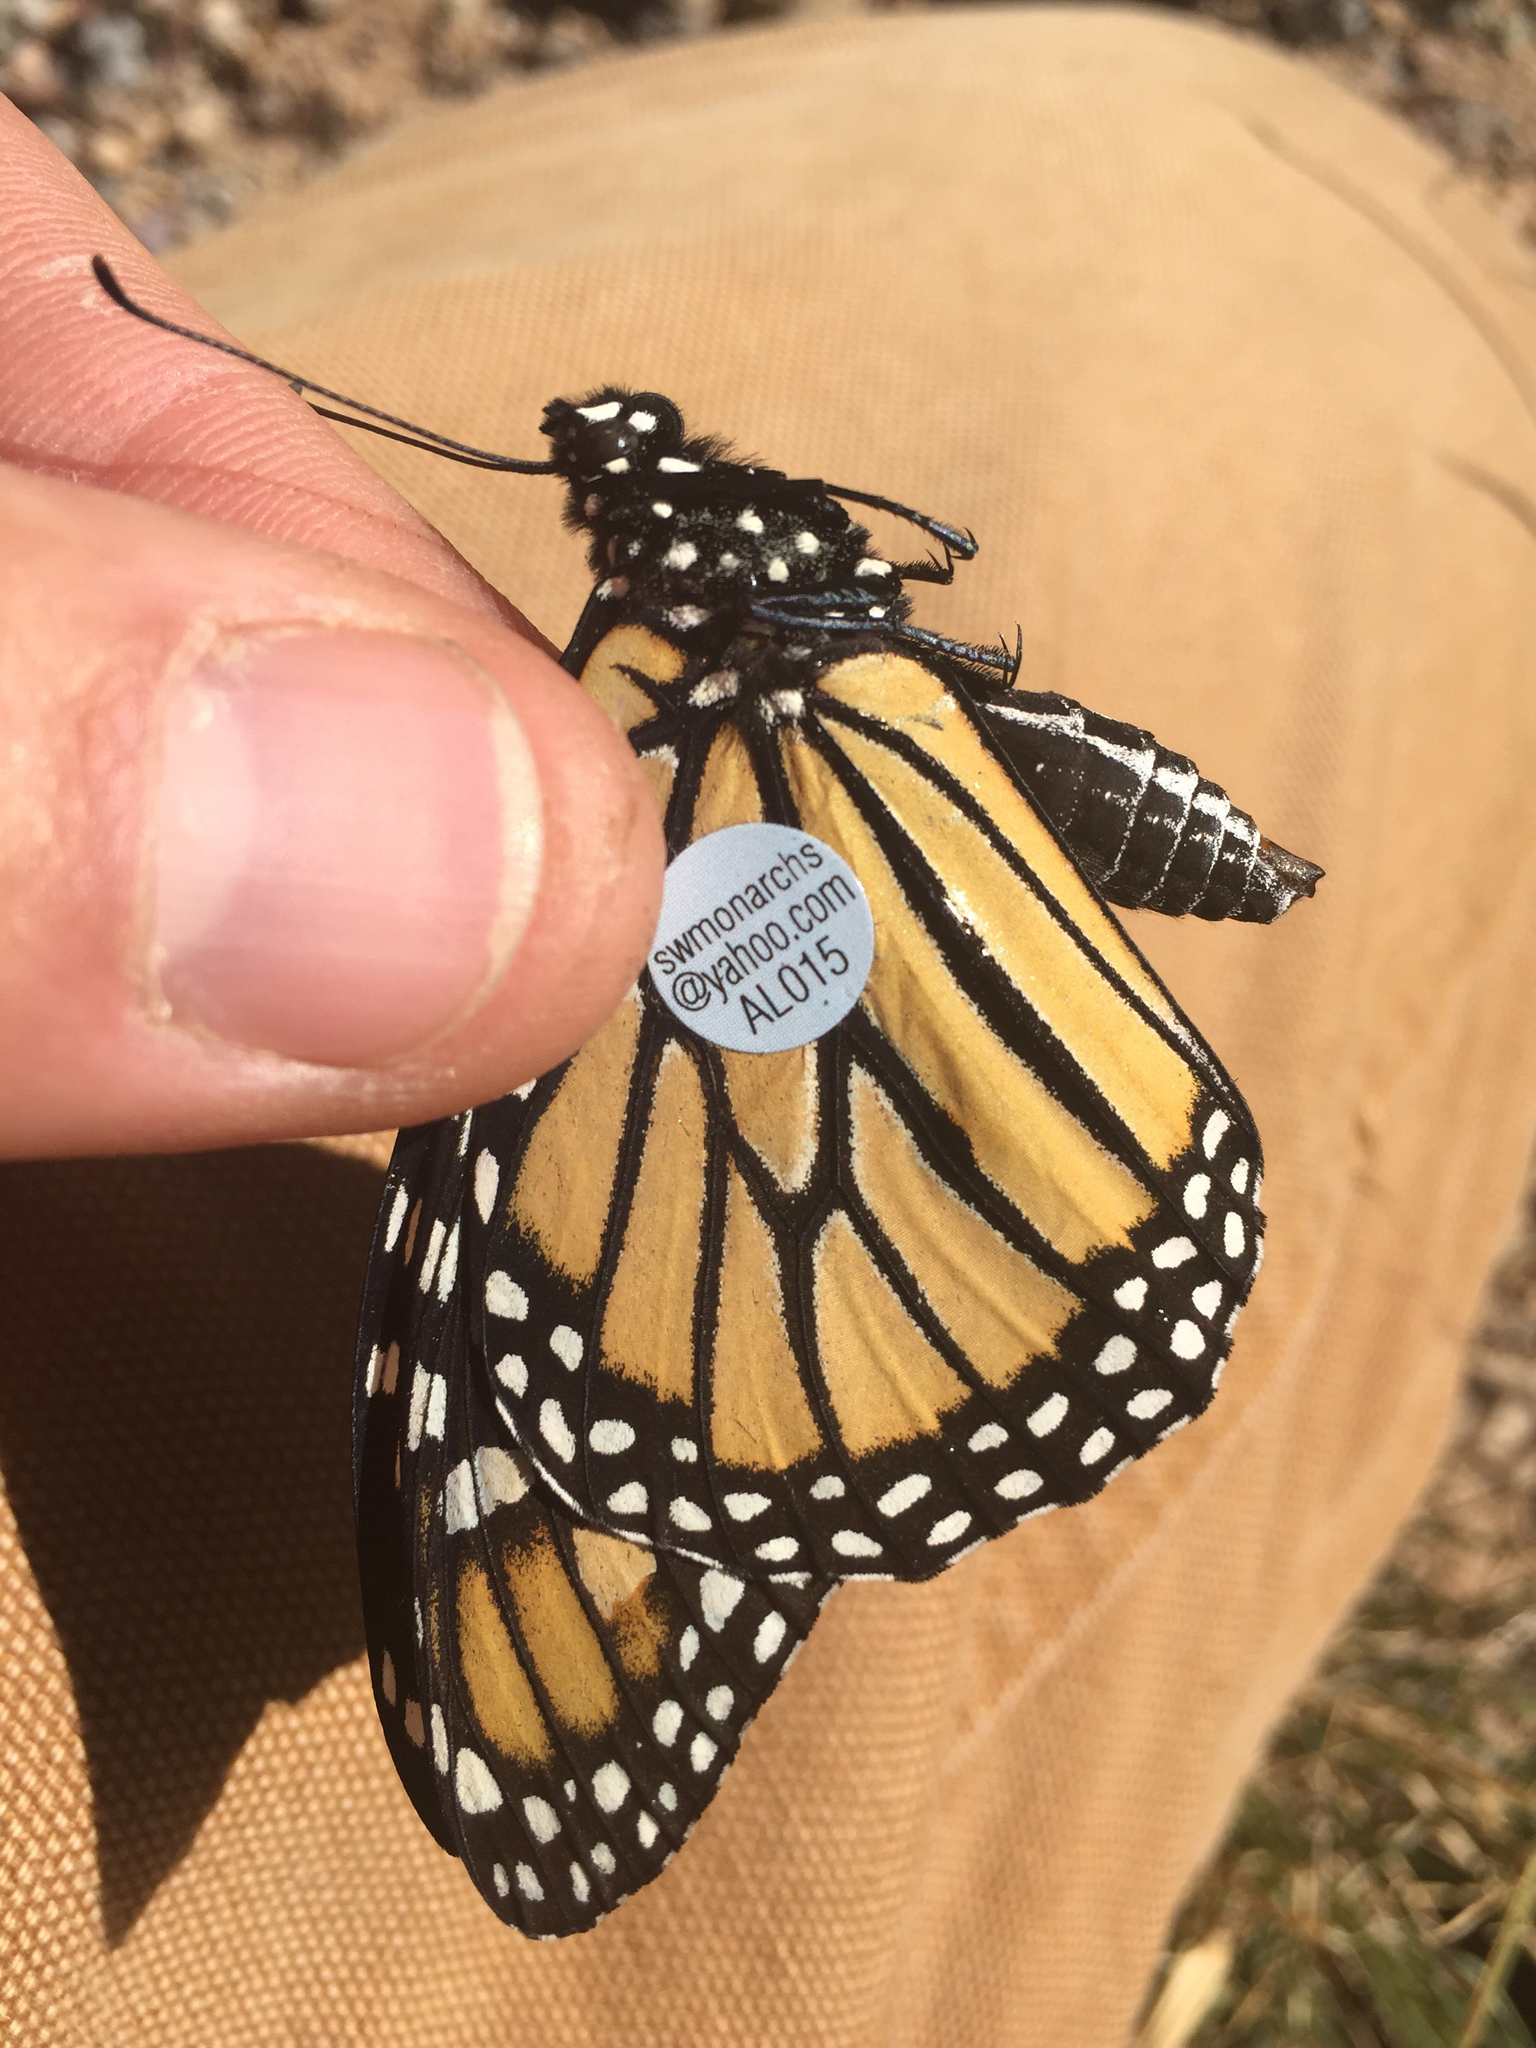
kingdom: Animalia
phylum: Arthropoda
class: Insecta
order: Lepidoptera
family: Nymphalidae
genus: Danaus
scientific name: Danaus plexippus
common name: Monarch
